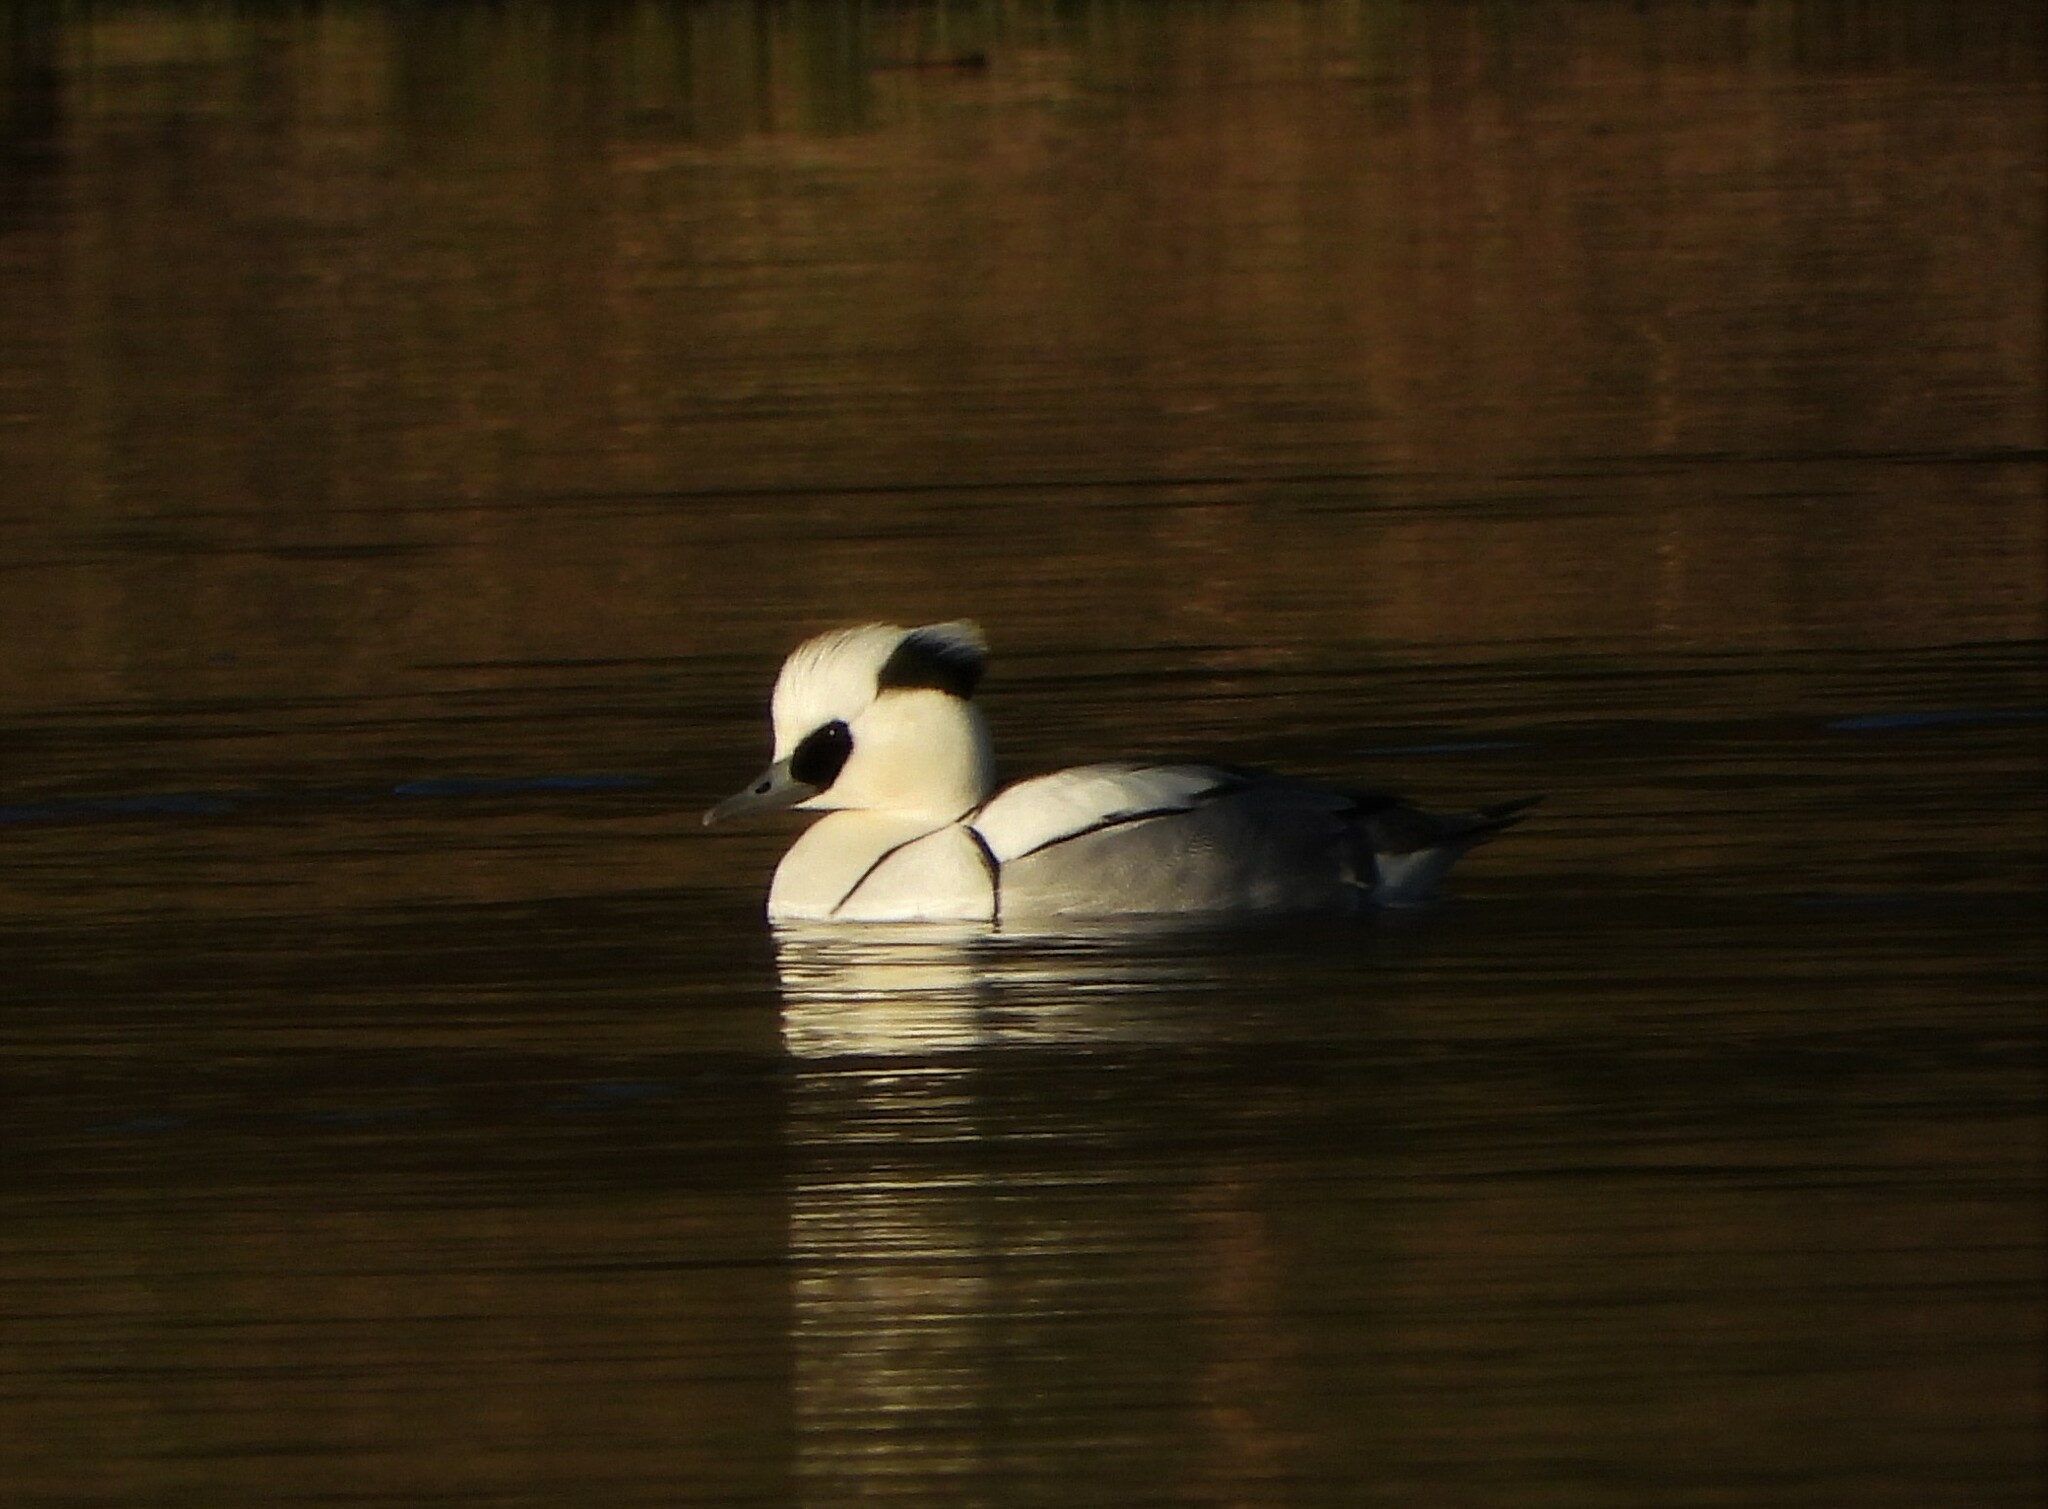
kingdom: Animalia
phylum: Chordata
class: Aves
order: Anseriformes
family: Anatidae
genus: Mergellus
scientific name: Mergellus albellus
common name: Smew
